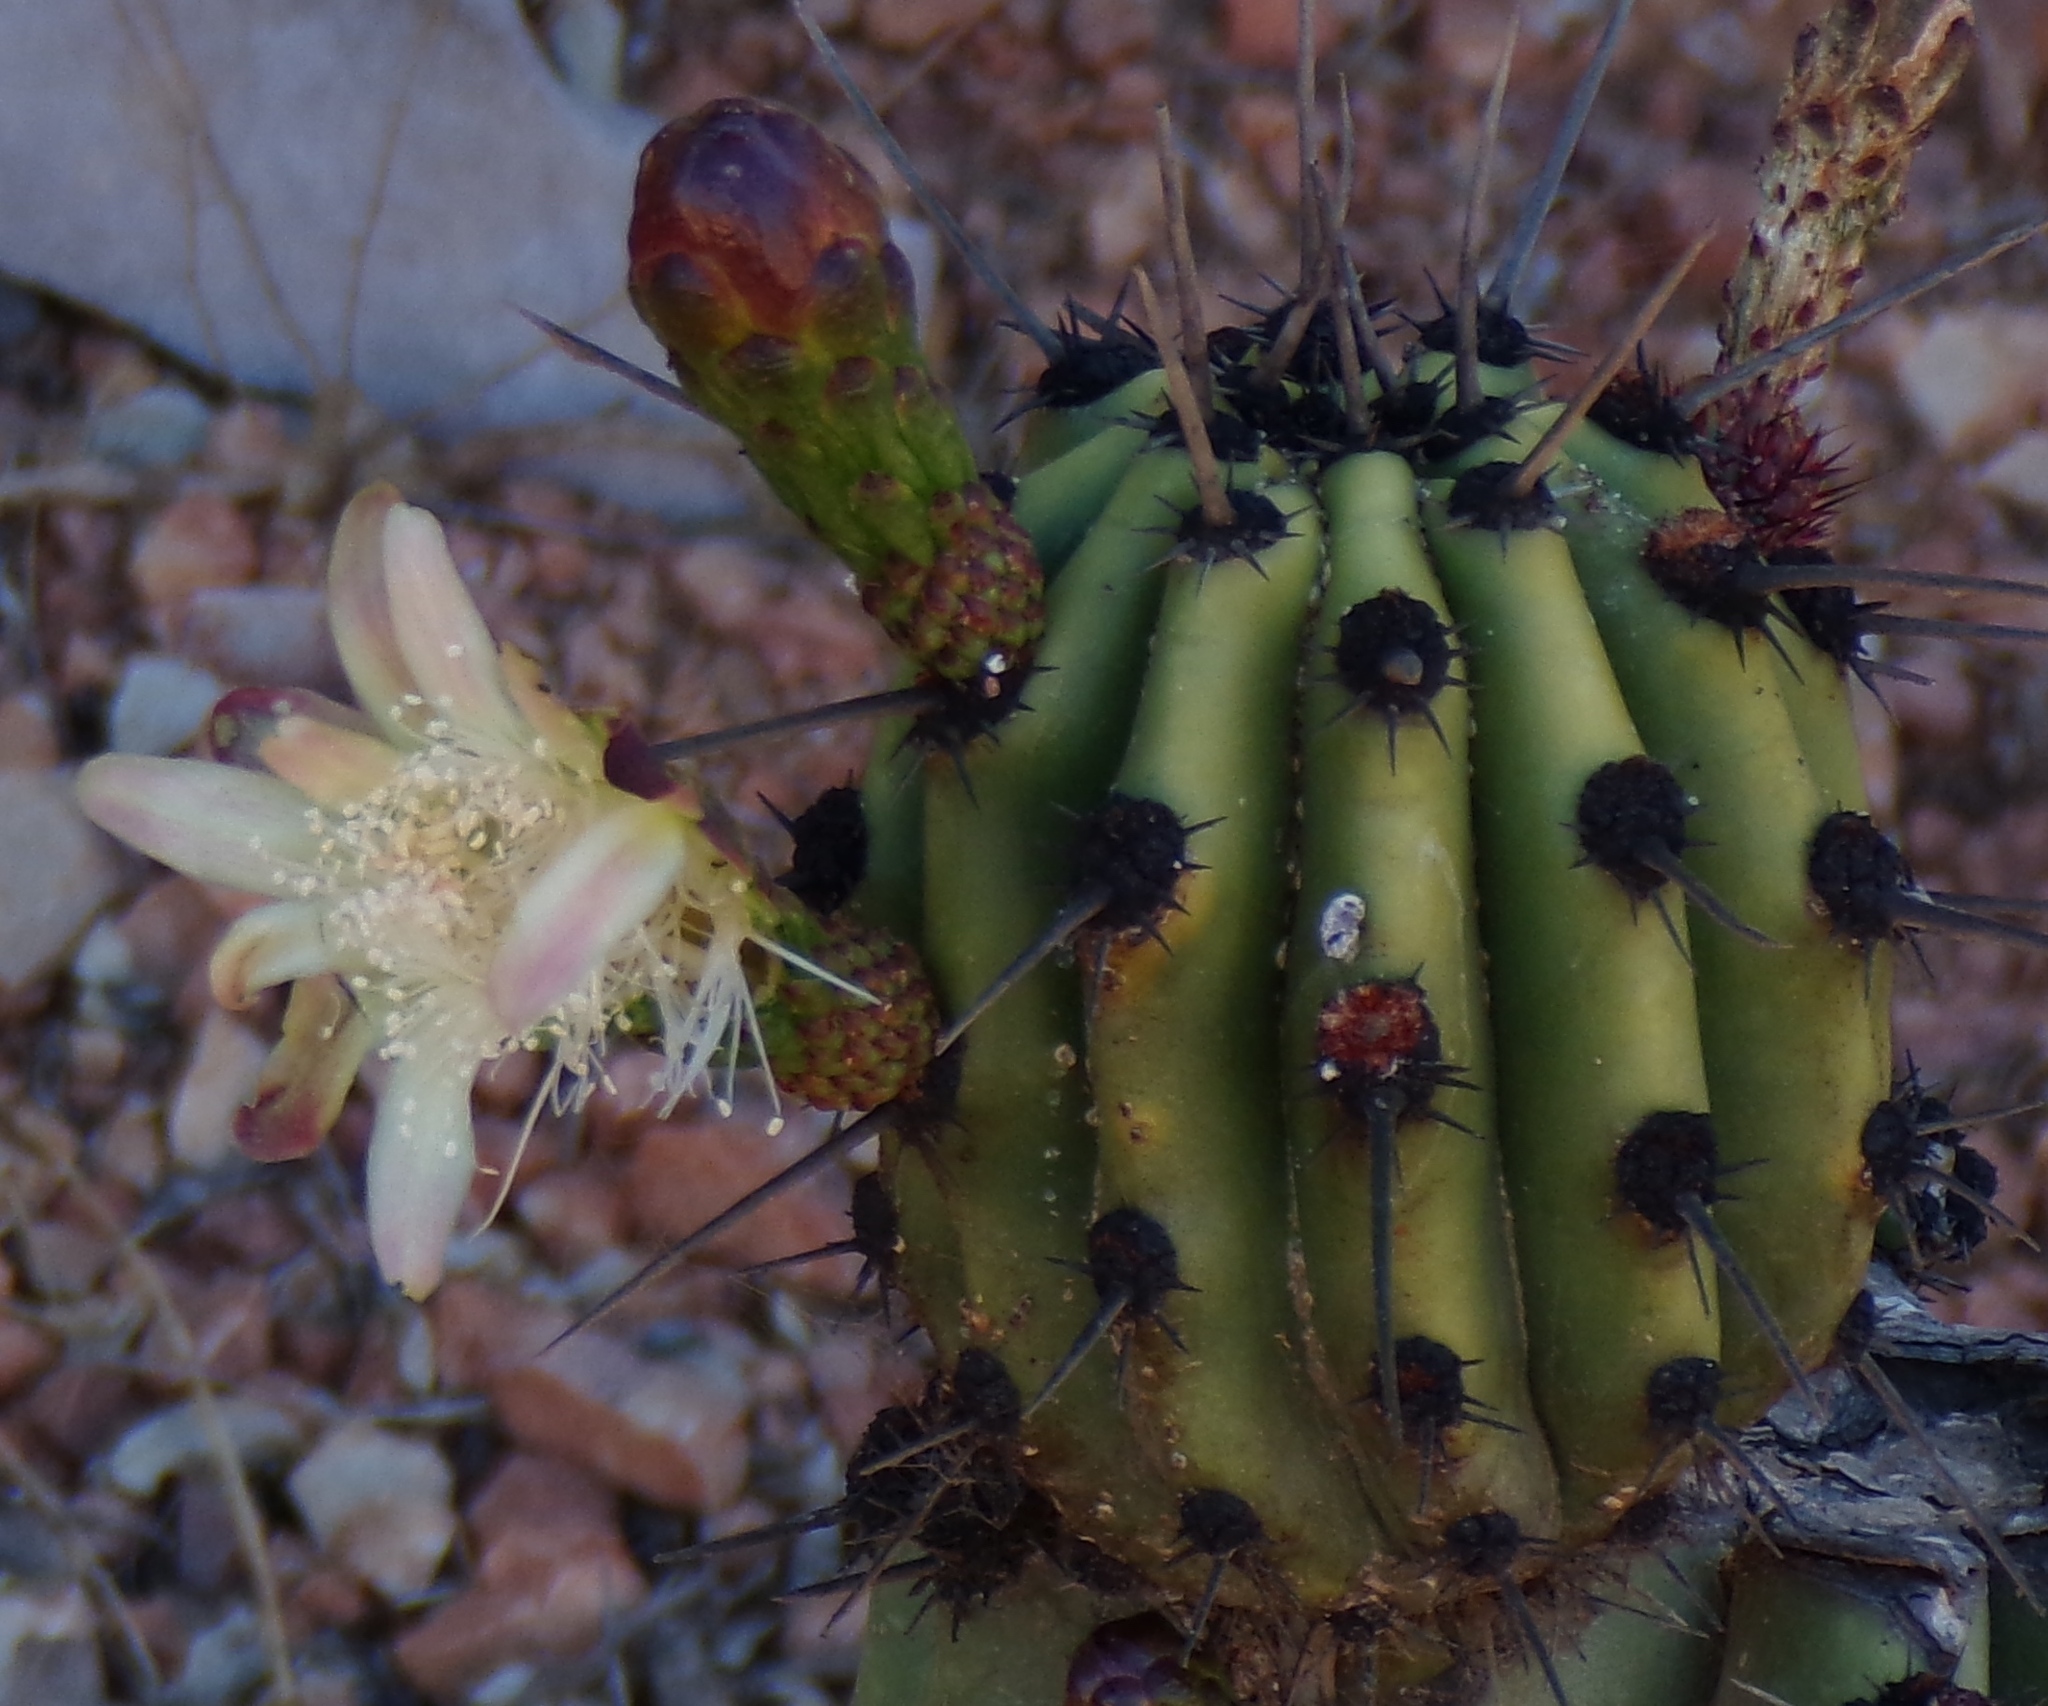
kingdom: Plantae
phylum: Tracheophyta
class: Magnoliopsida
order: Caryophyllales
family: Cactaceae
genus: Stenocereus
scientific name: Stenocereus martinezii
